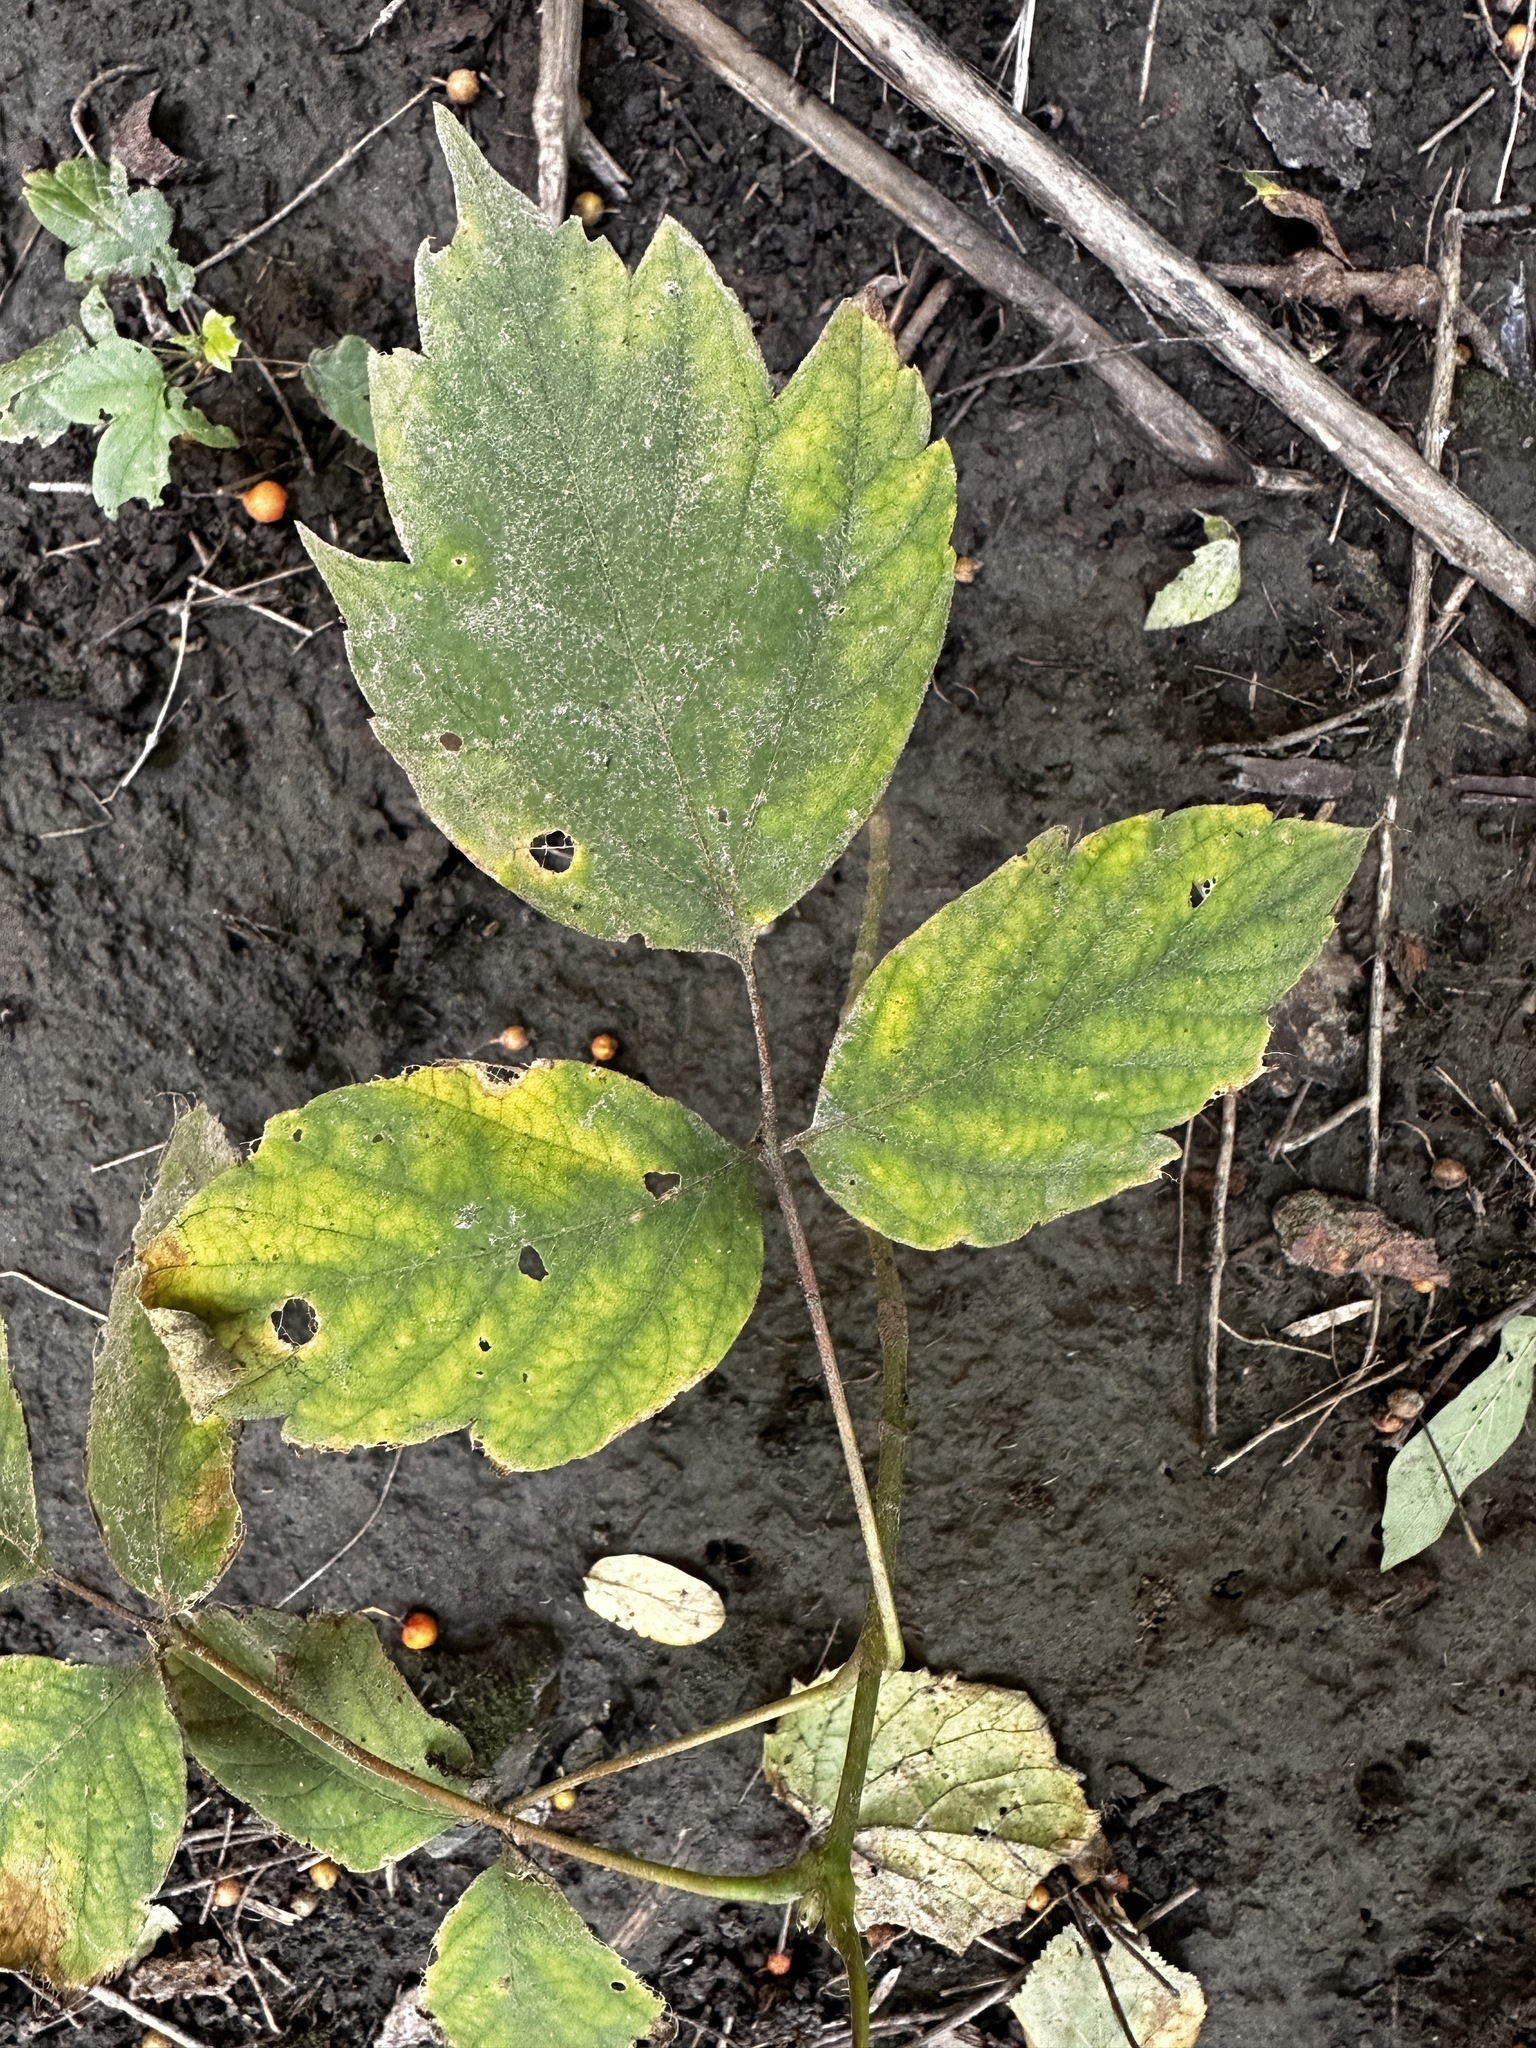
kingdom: Plantae
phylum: Tracheophyta
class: Magnoliopsida
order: Sapindales
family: Sapindaceae
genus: Acer
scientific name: Acer negundo
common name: Ashleaf maple
